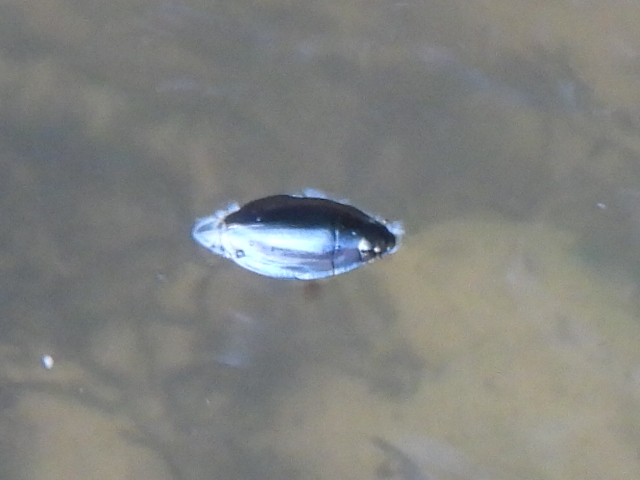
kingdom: Animalia
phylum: Arthropoda
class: Insecta
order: Coleoptera
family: Gyrinidae
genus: Dineutus
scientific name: Dineutus
